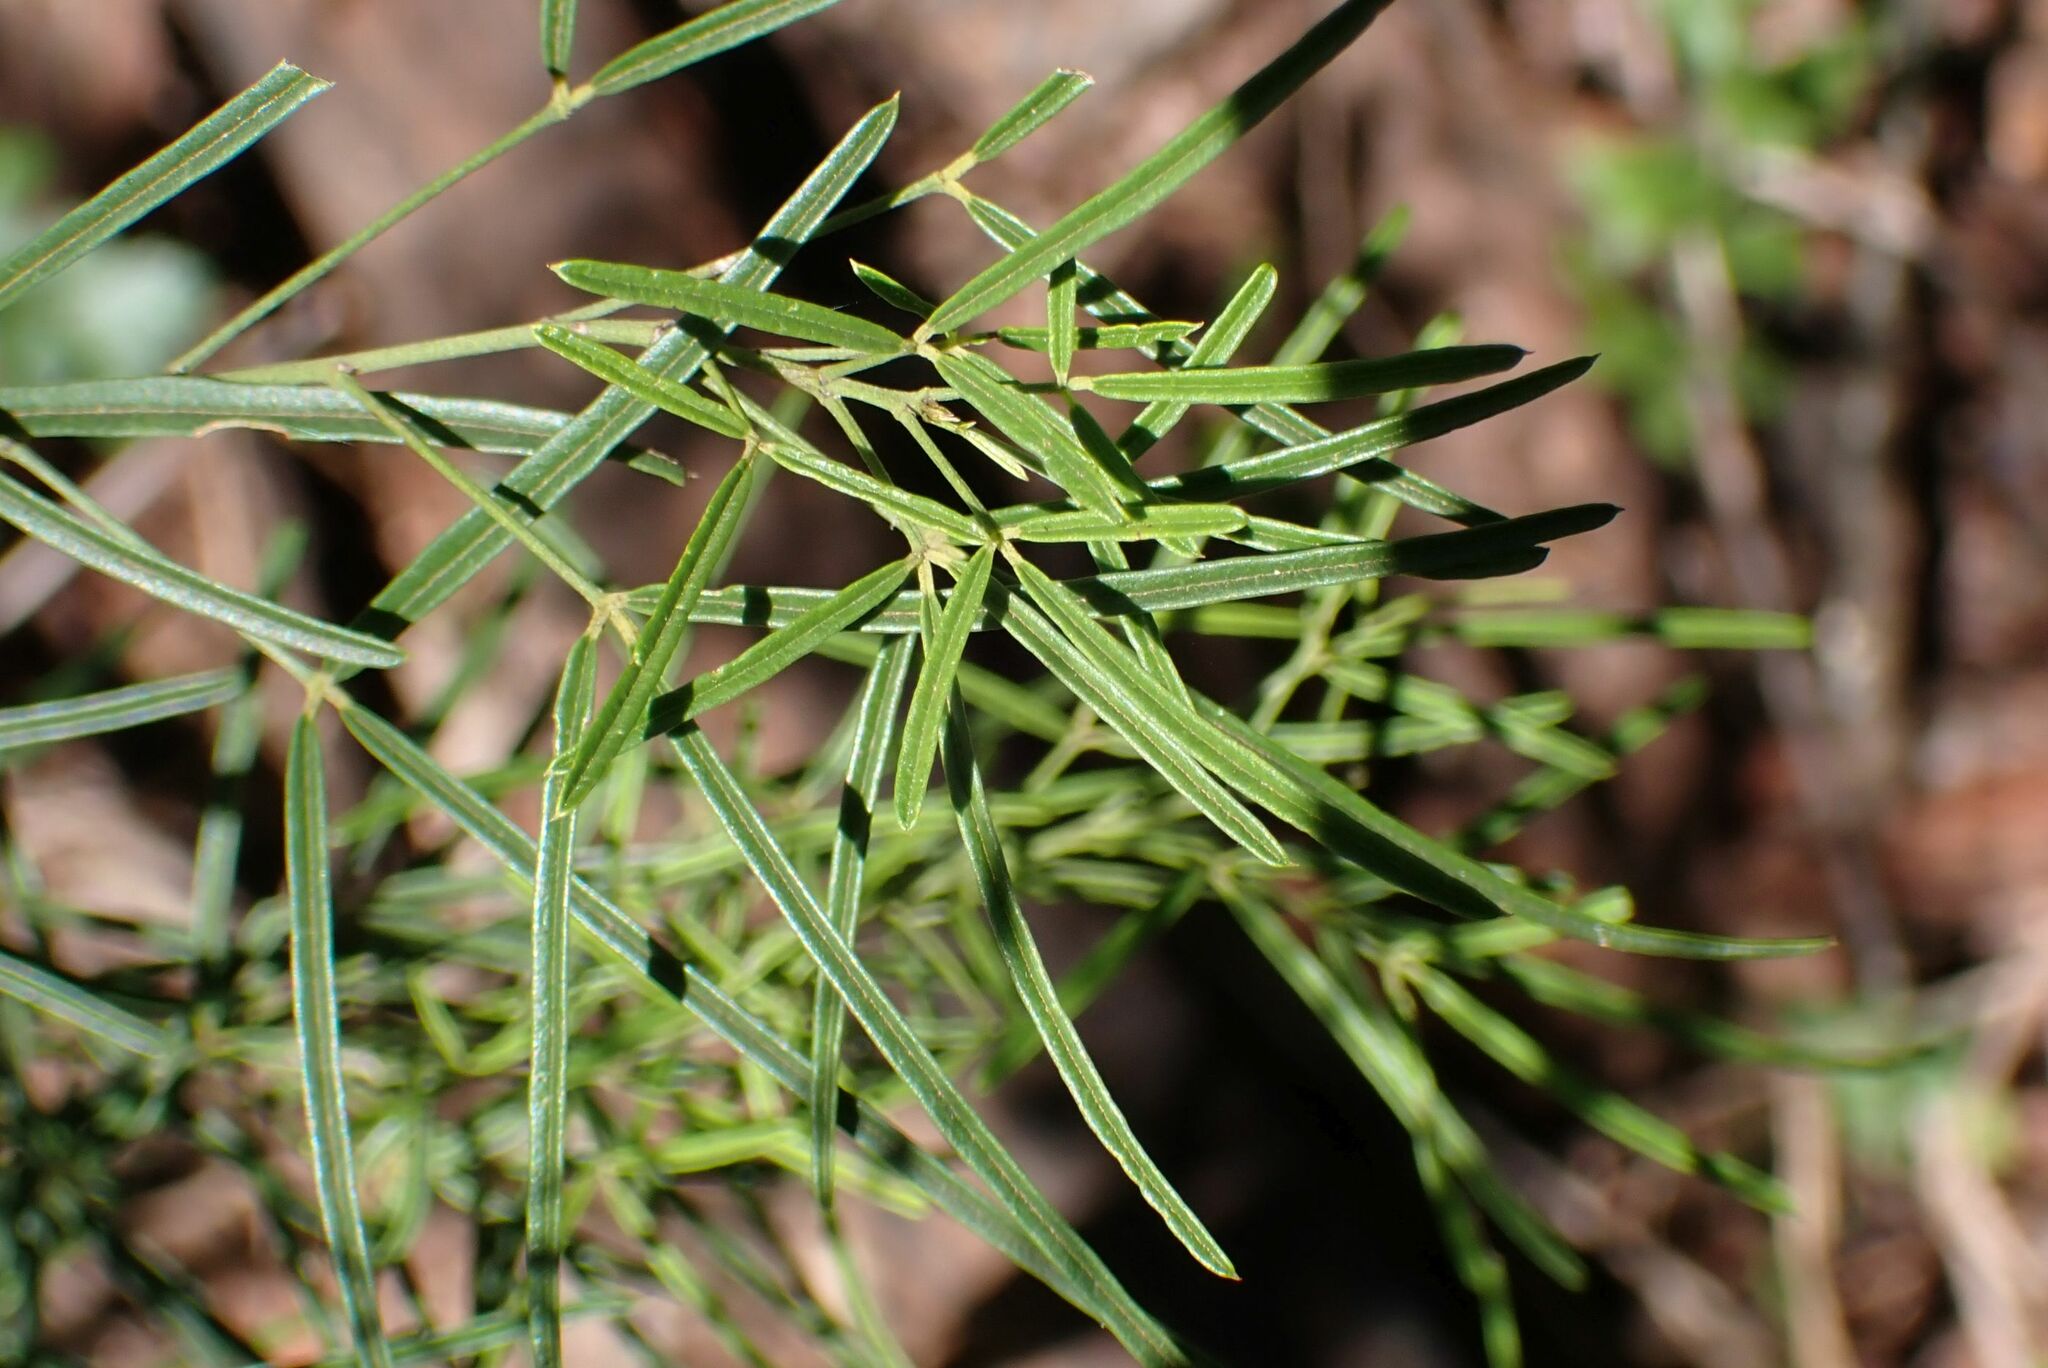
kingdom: Plantae
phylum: Tracheophyta
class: Magnoliopsida
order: Brassicales
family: Capparaceae
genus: Maerua
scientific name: Maerua rosmarinoides
